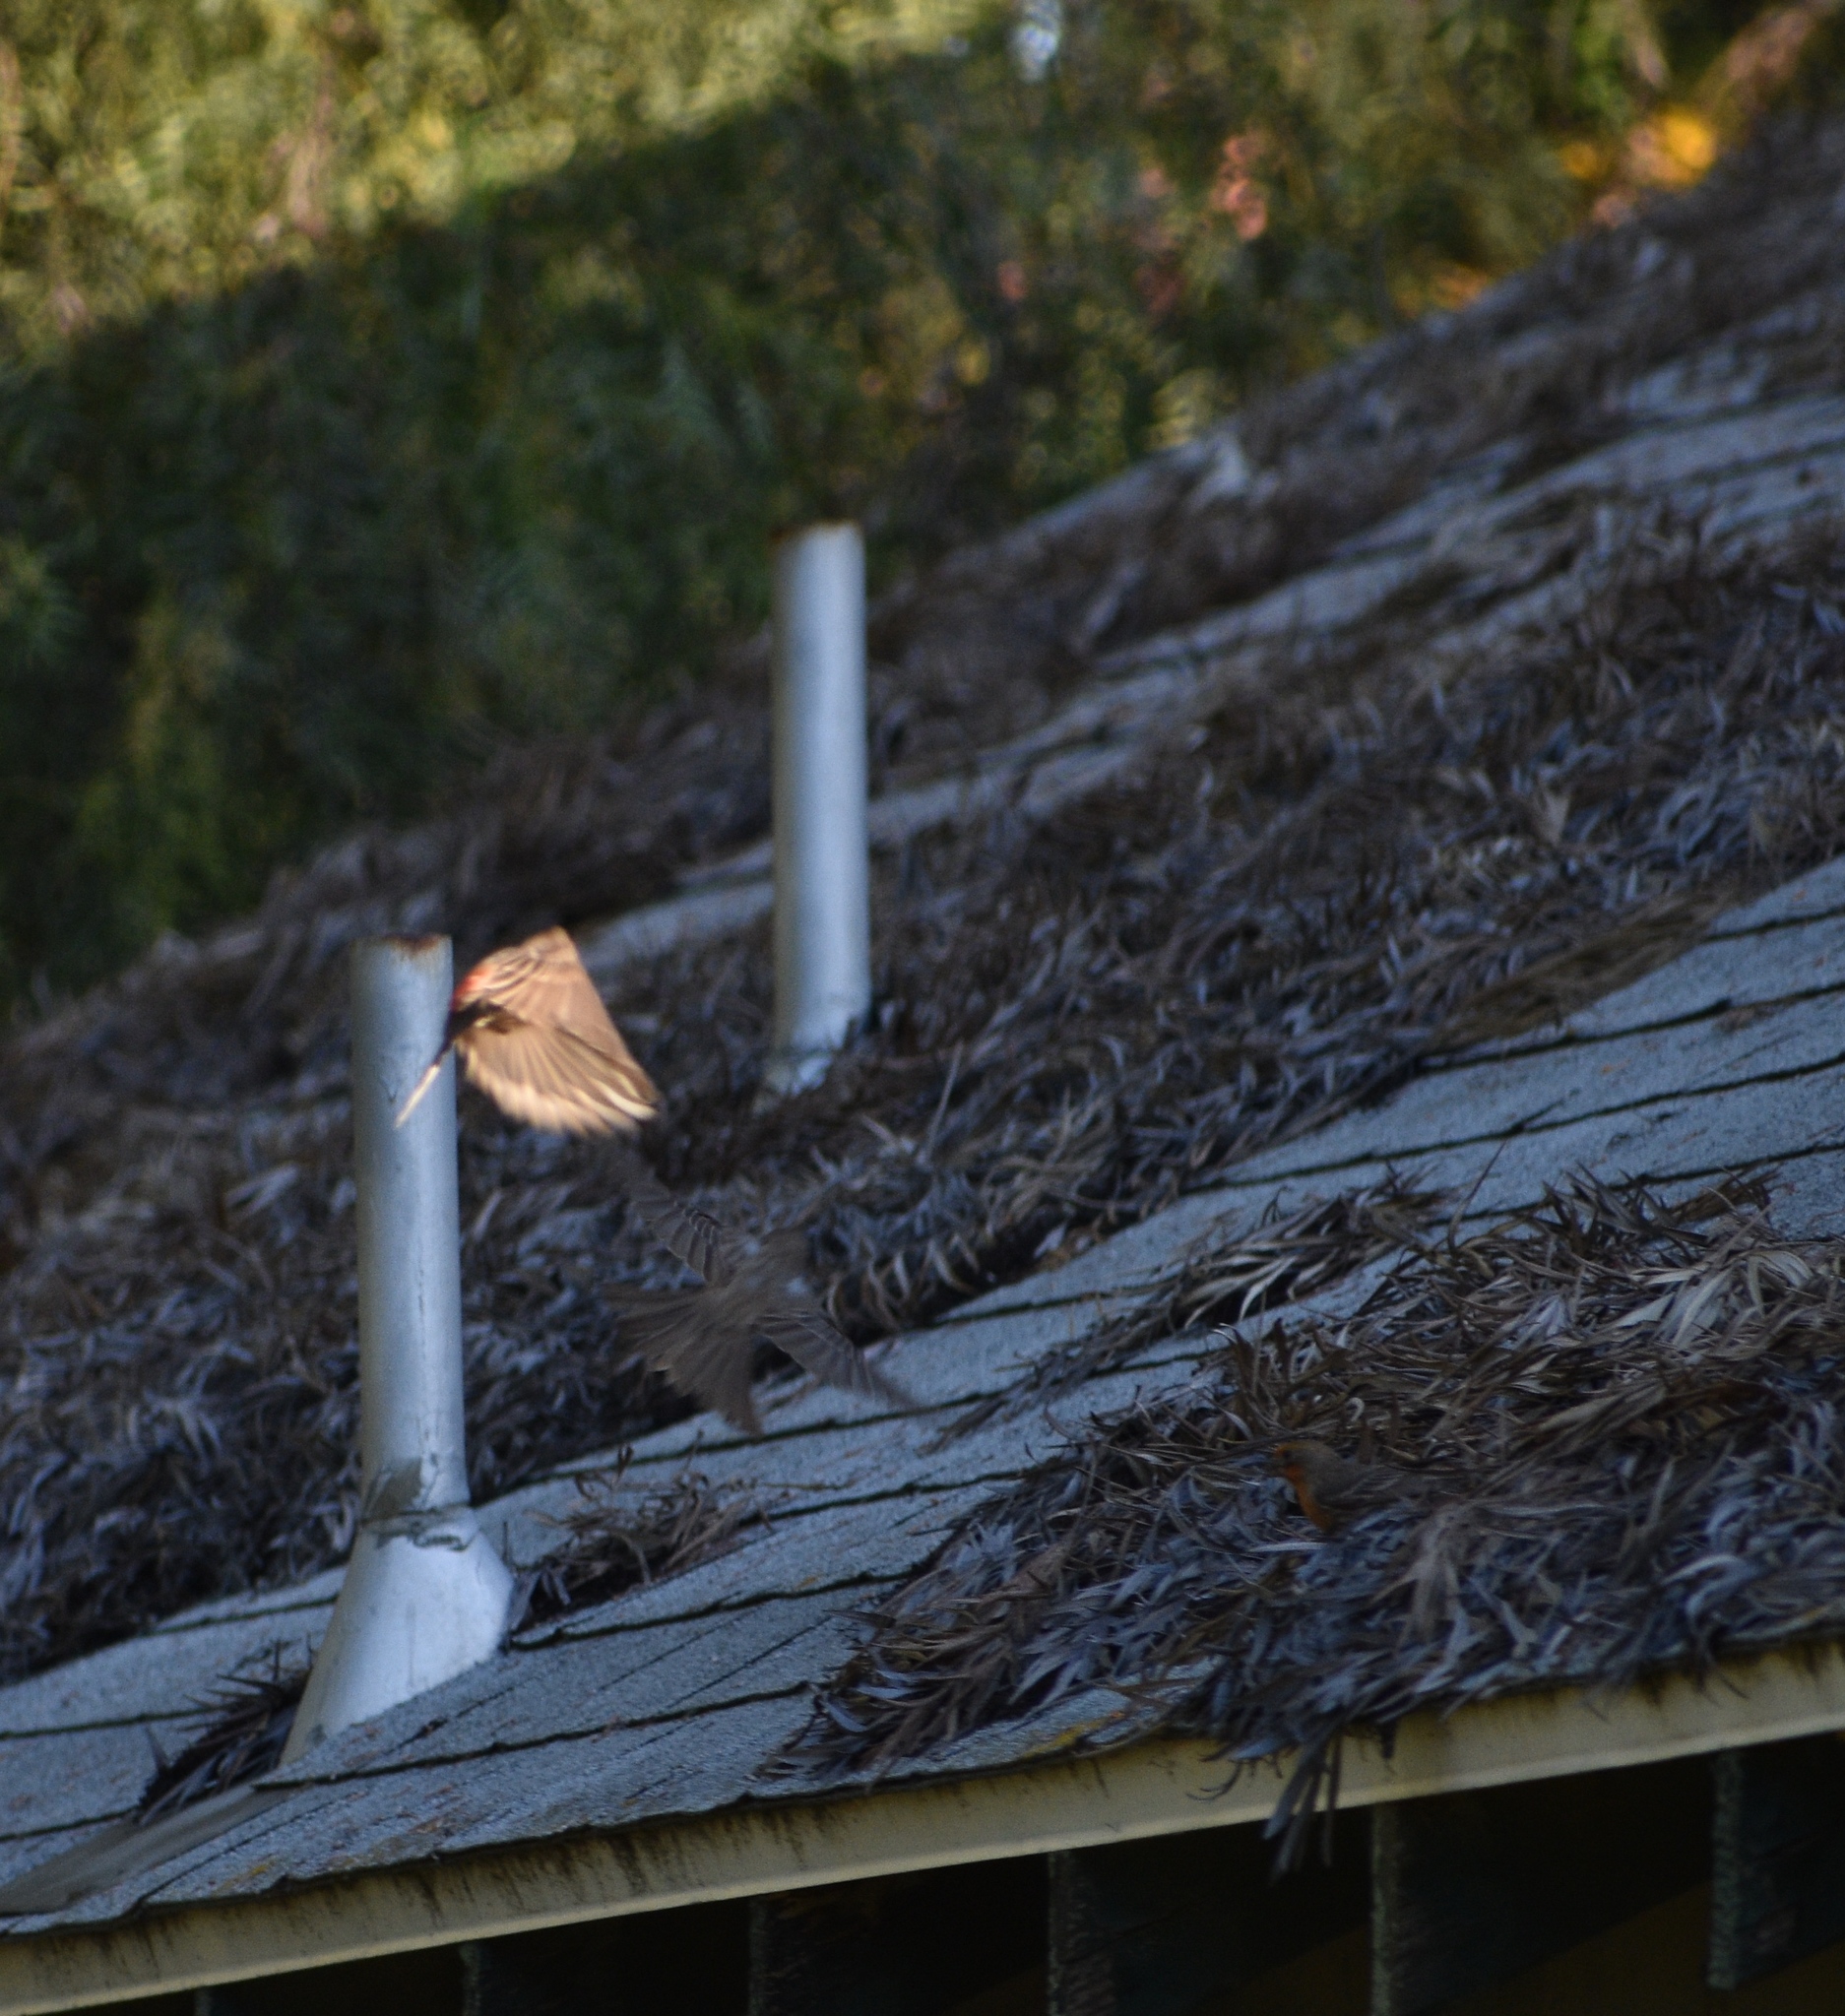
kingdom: Animalia
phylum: Chordata
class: Aves
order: Passeriformes
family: Fringillidae
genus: Haemorhous
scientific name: Haemorhous mexicanus
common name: House finch
